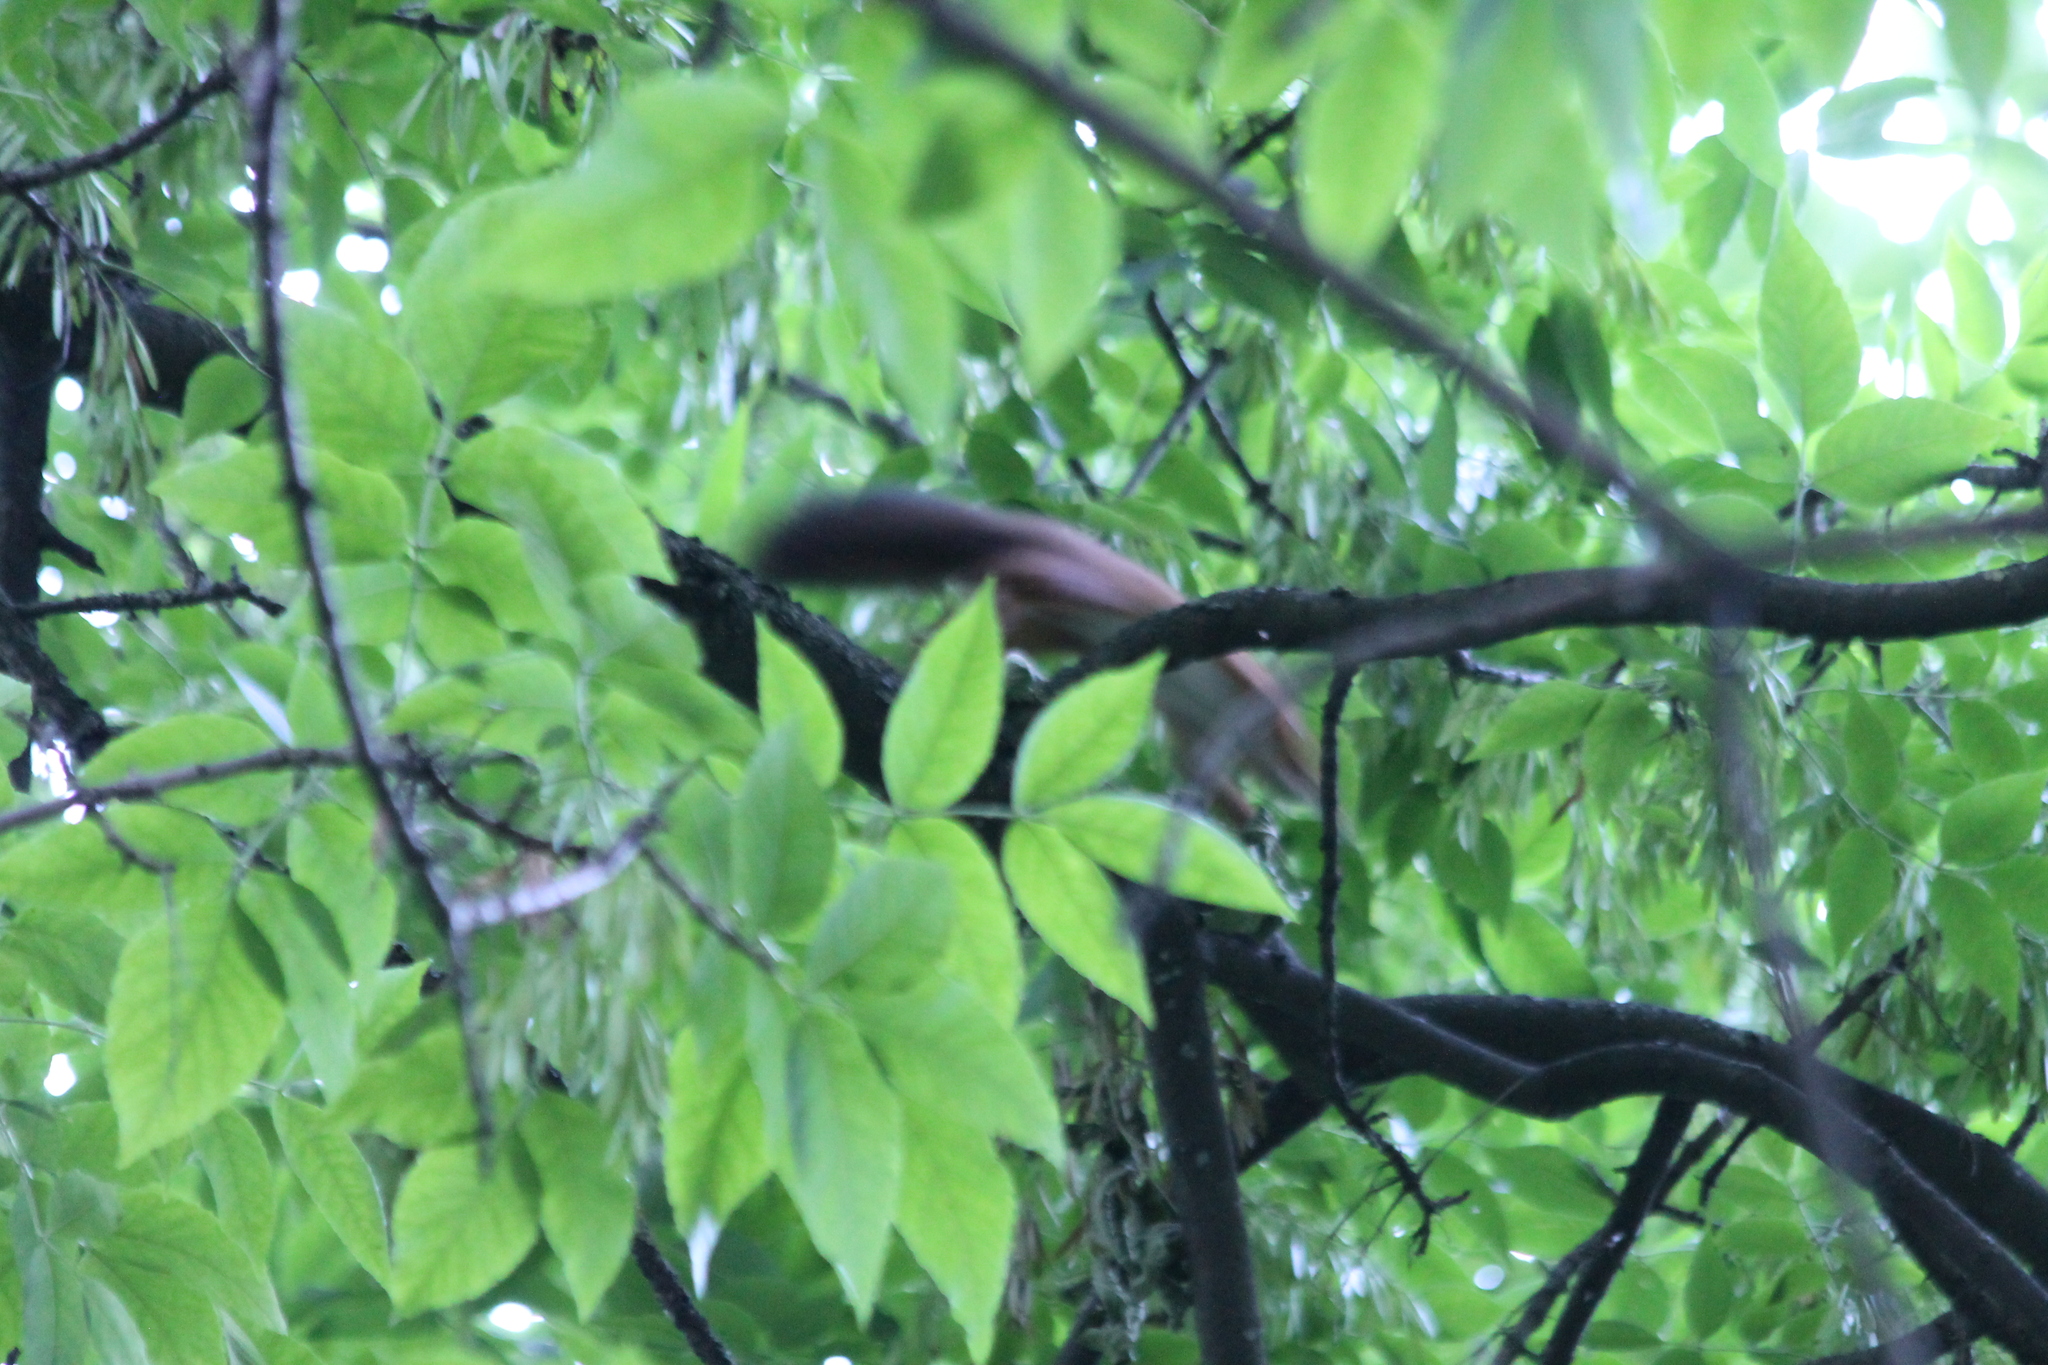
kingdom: Animalia
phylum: Chordata
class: Mammalia
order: Rodentia
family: Sciuridae
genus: Sciurus
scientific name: Sciurus vulgaris
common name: Eurasian red squirrel
